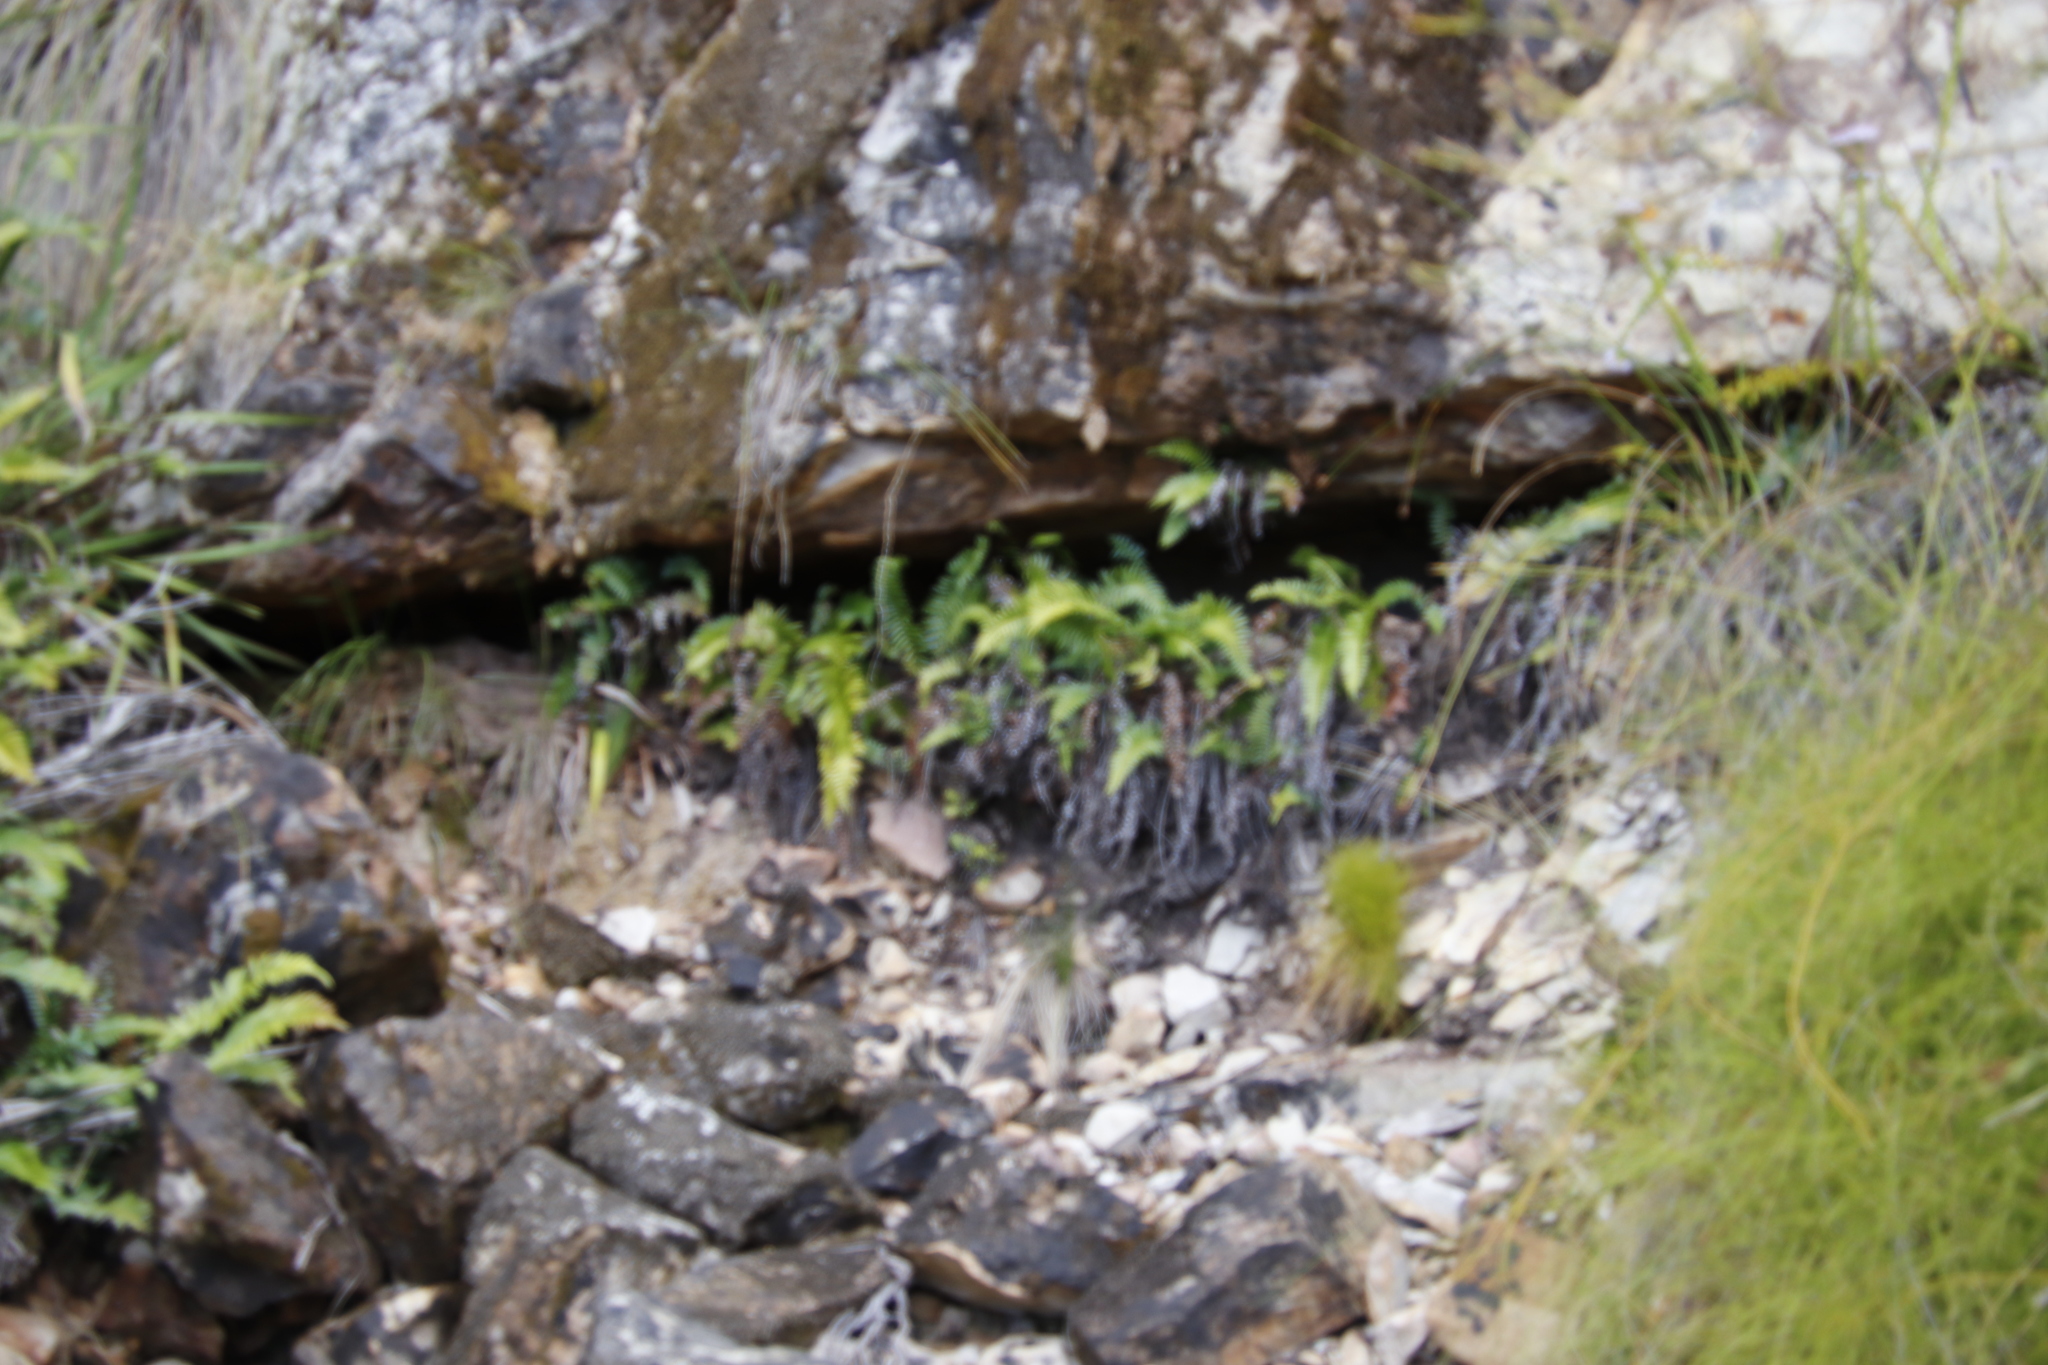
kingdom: Plantae
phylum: Tracheophyta
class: Polypodiopsida
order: Polypodiales
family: Blechnaceae
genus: Blechnum
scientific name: Blechnum punctulatum
